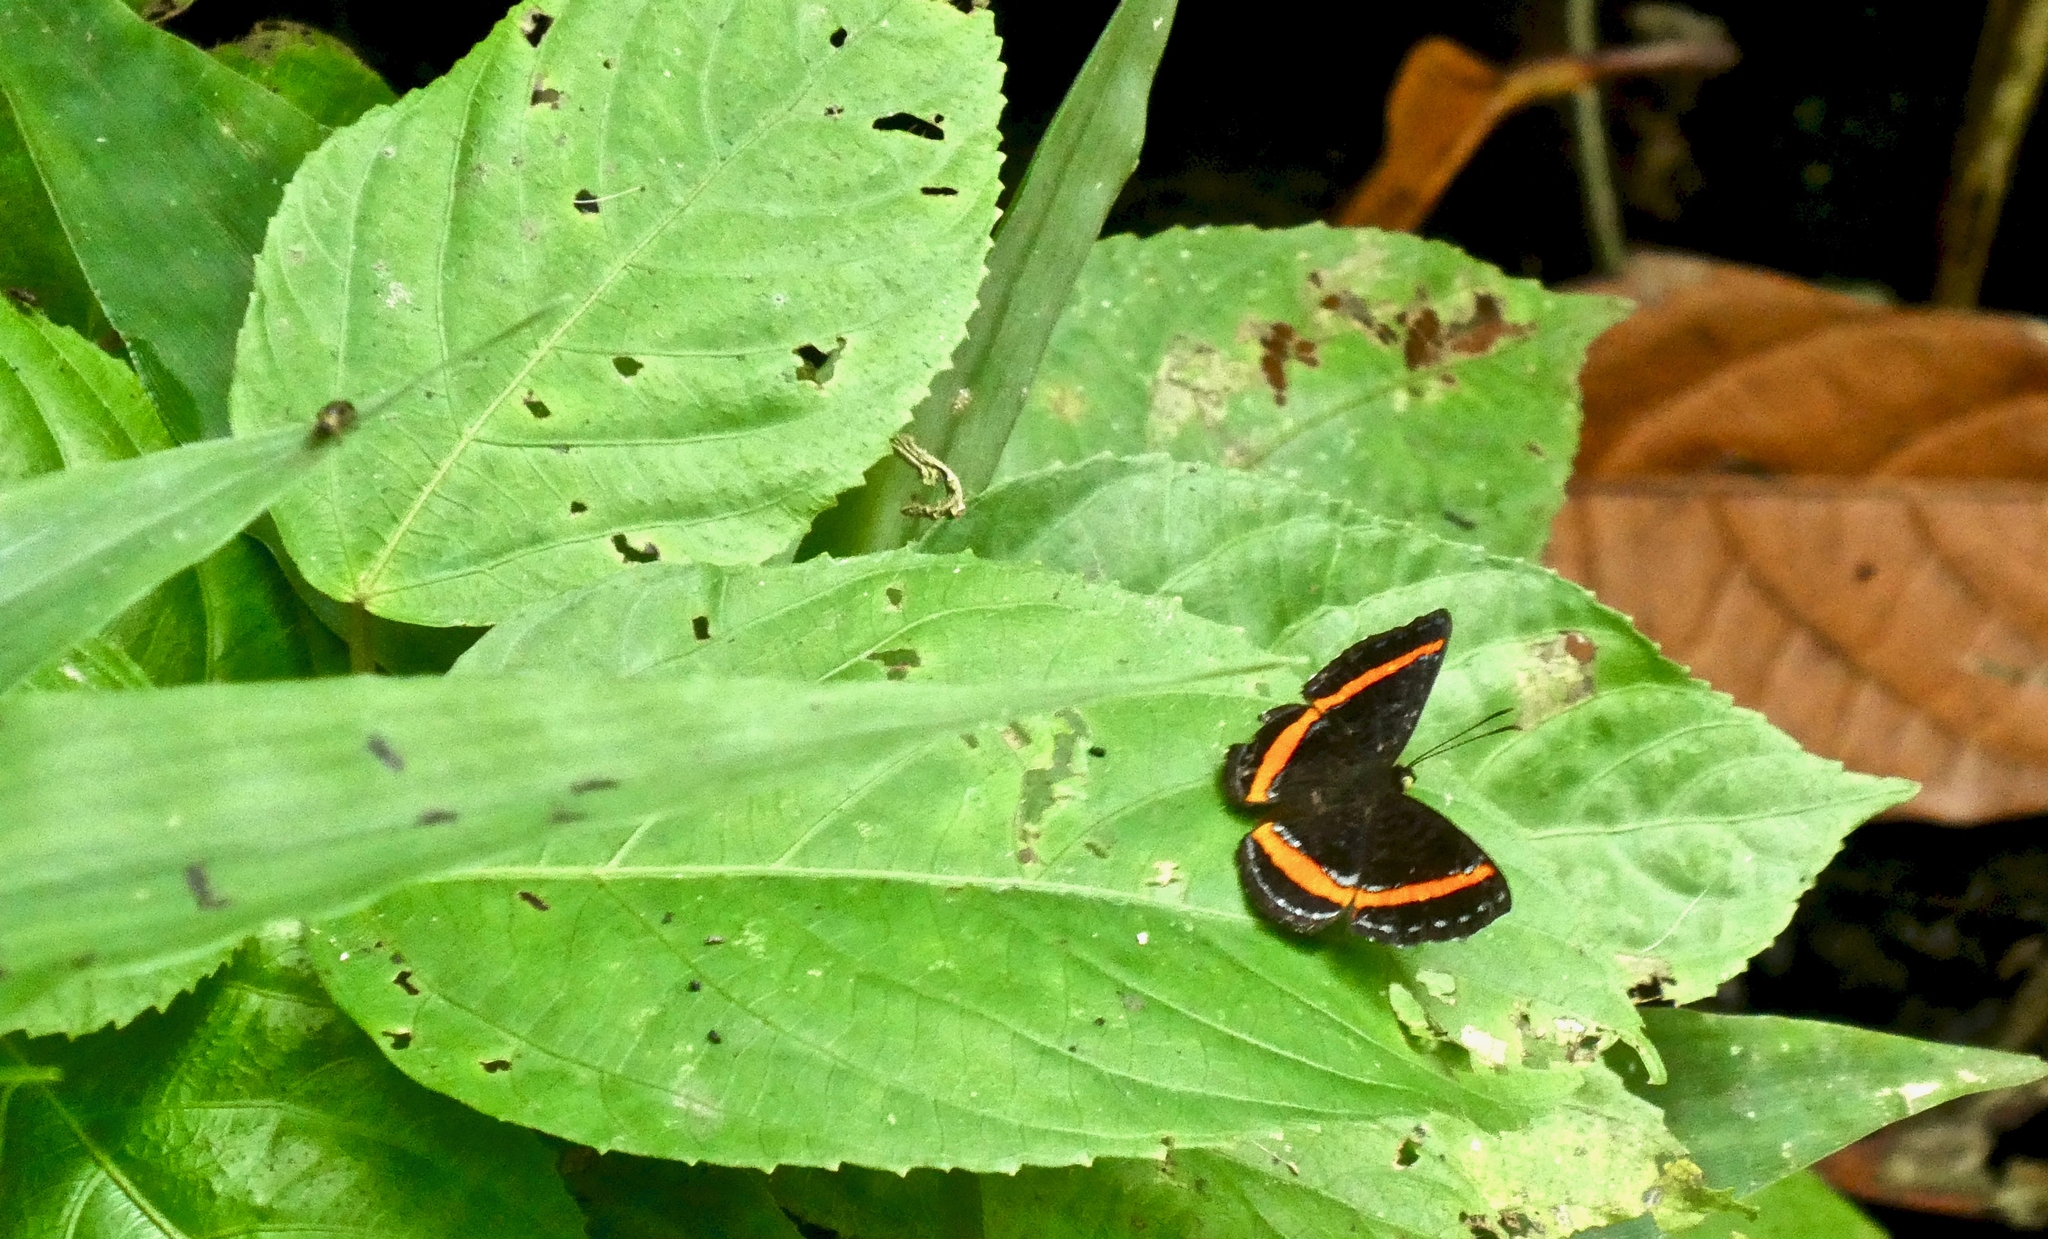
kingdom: Animalia
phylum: Arthropoda
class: Insecta
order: Lepidoptera
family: Riodinidae
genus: Crocozona
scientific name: Crocozona coecias
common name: Orange-banded gem
